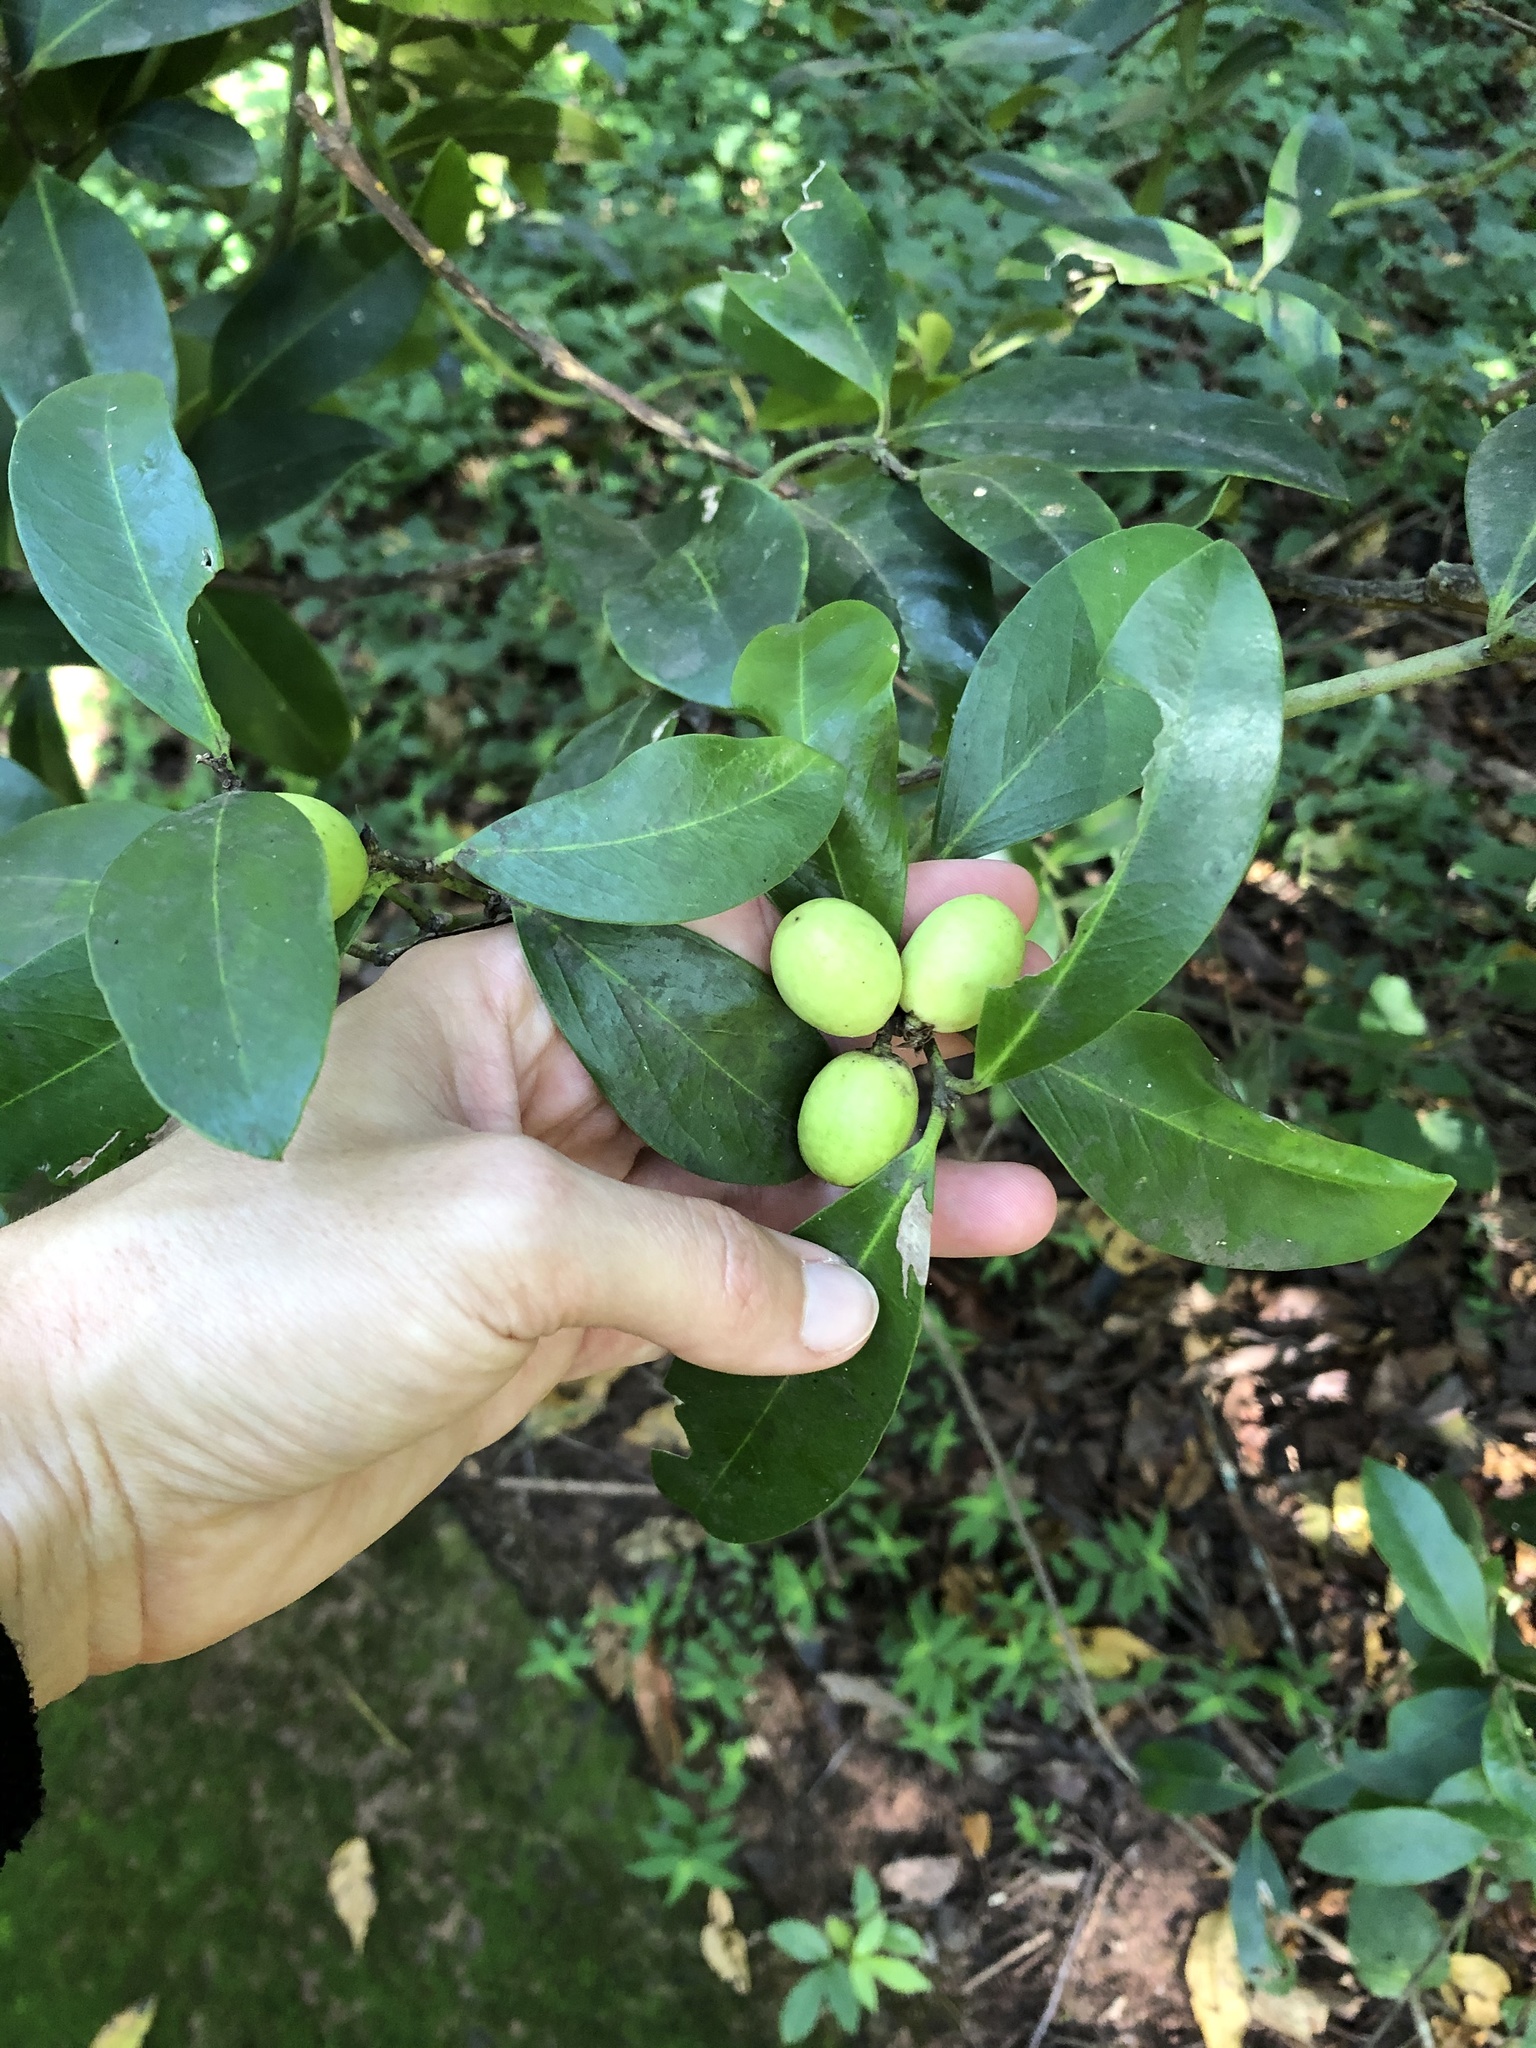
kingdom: Plantae
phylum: Tracheophyta
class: Magnoliopsida
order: Gentianales
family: Apocynaceae
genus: Acokanthera
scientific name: Acokanthera oblongifolia
